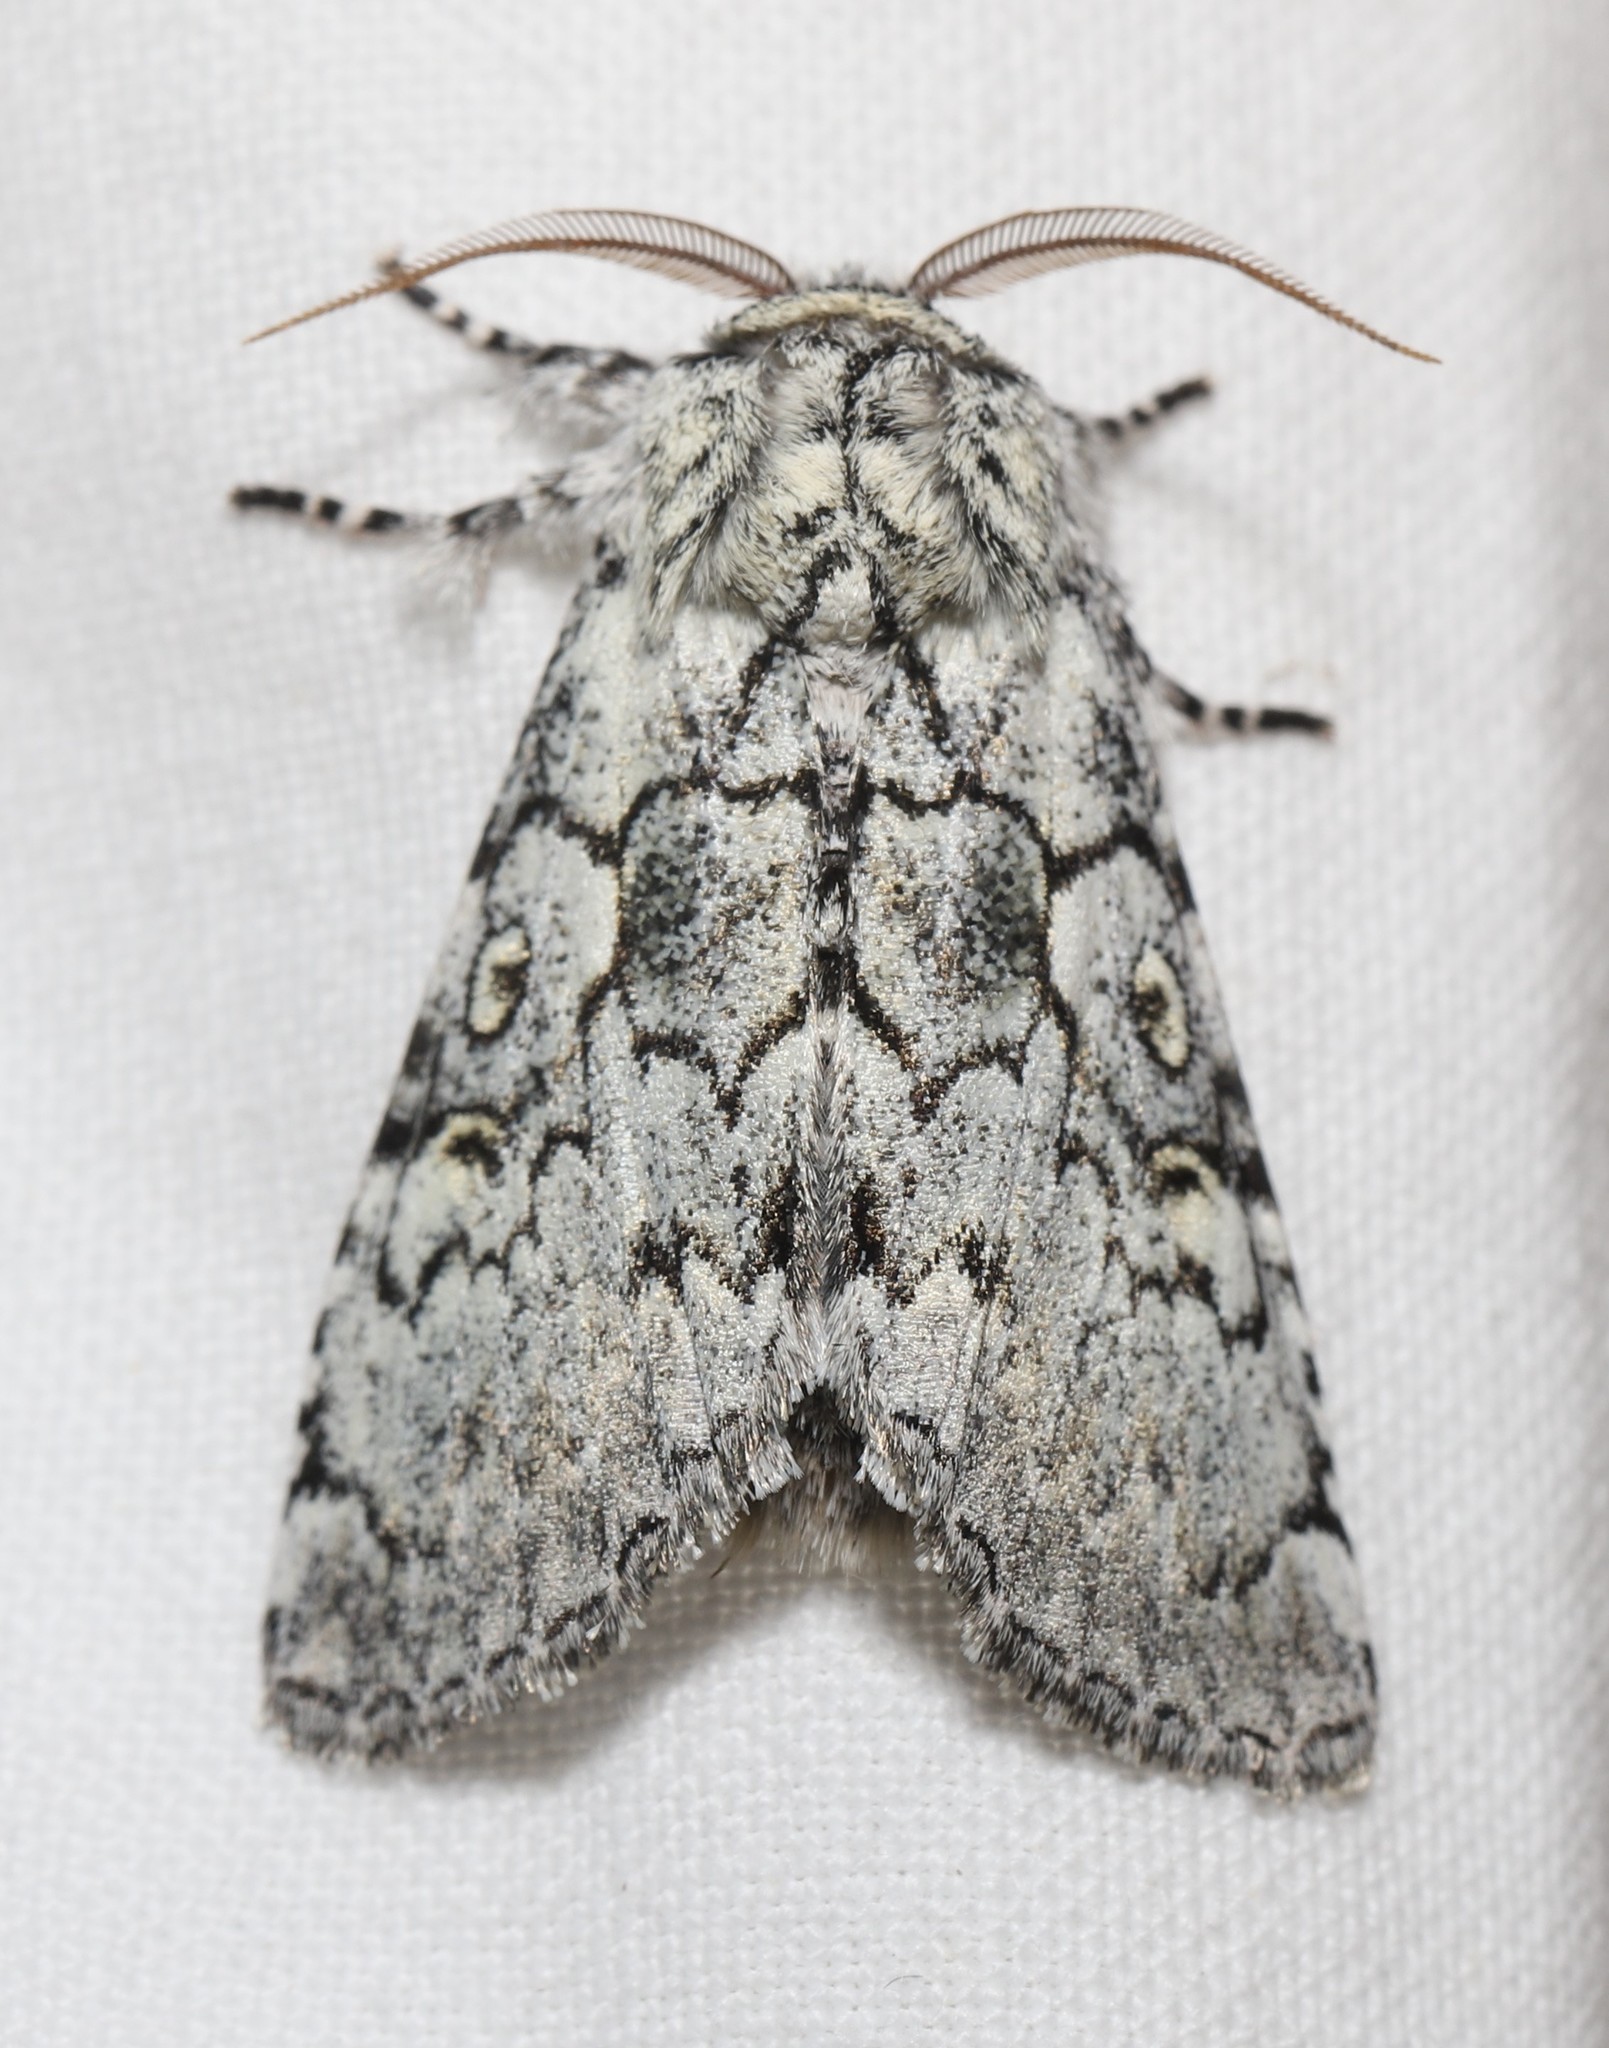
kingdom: Animalia
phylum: Arthropoda
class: Insecta
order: Lepidoptera
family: Noctuidae
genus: Charadra
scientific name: Charadra deridens
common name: Marbled tuffet
